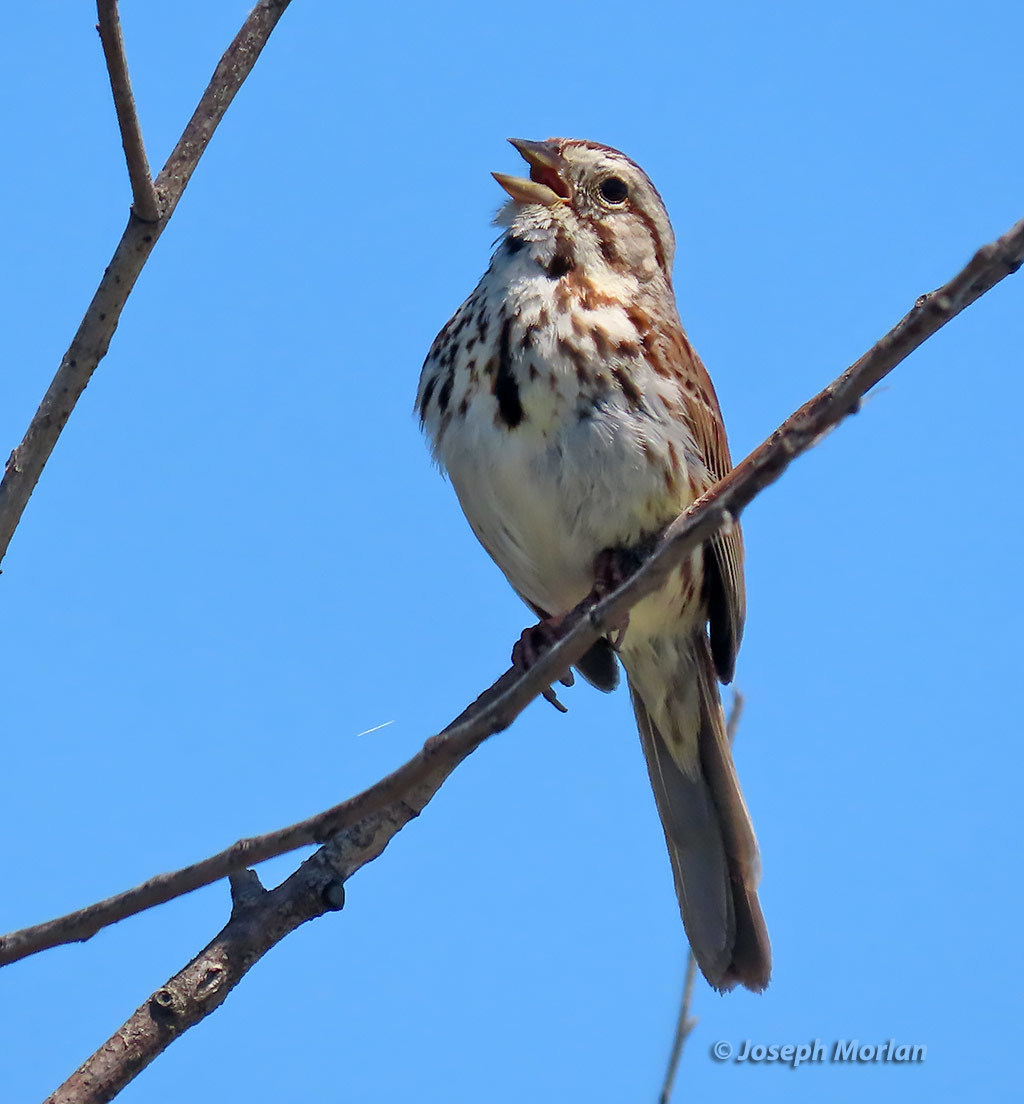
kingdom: Animalia
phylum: Chordata
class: Aves
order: Passeriformes
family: Passerellidae
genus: Melospiza
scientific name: Melospiza melodia
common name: Song sparrow
